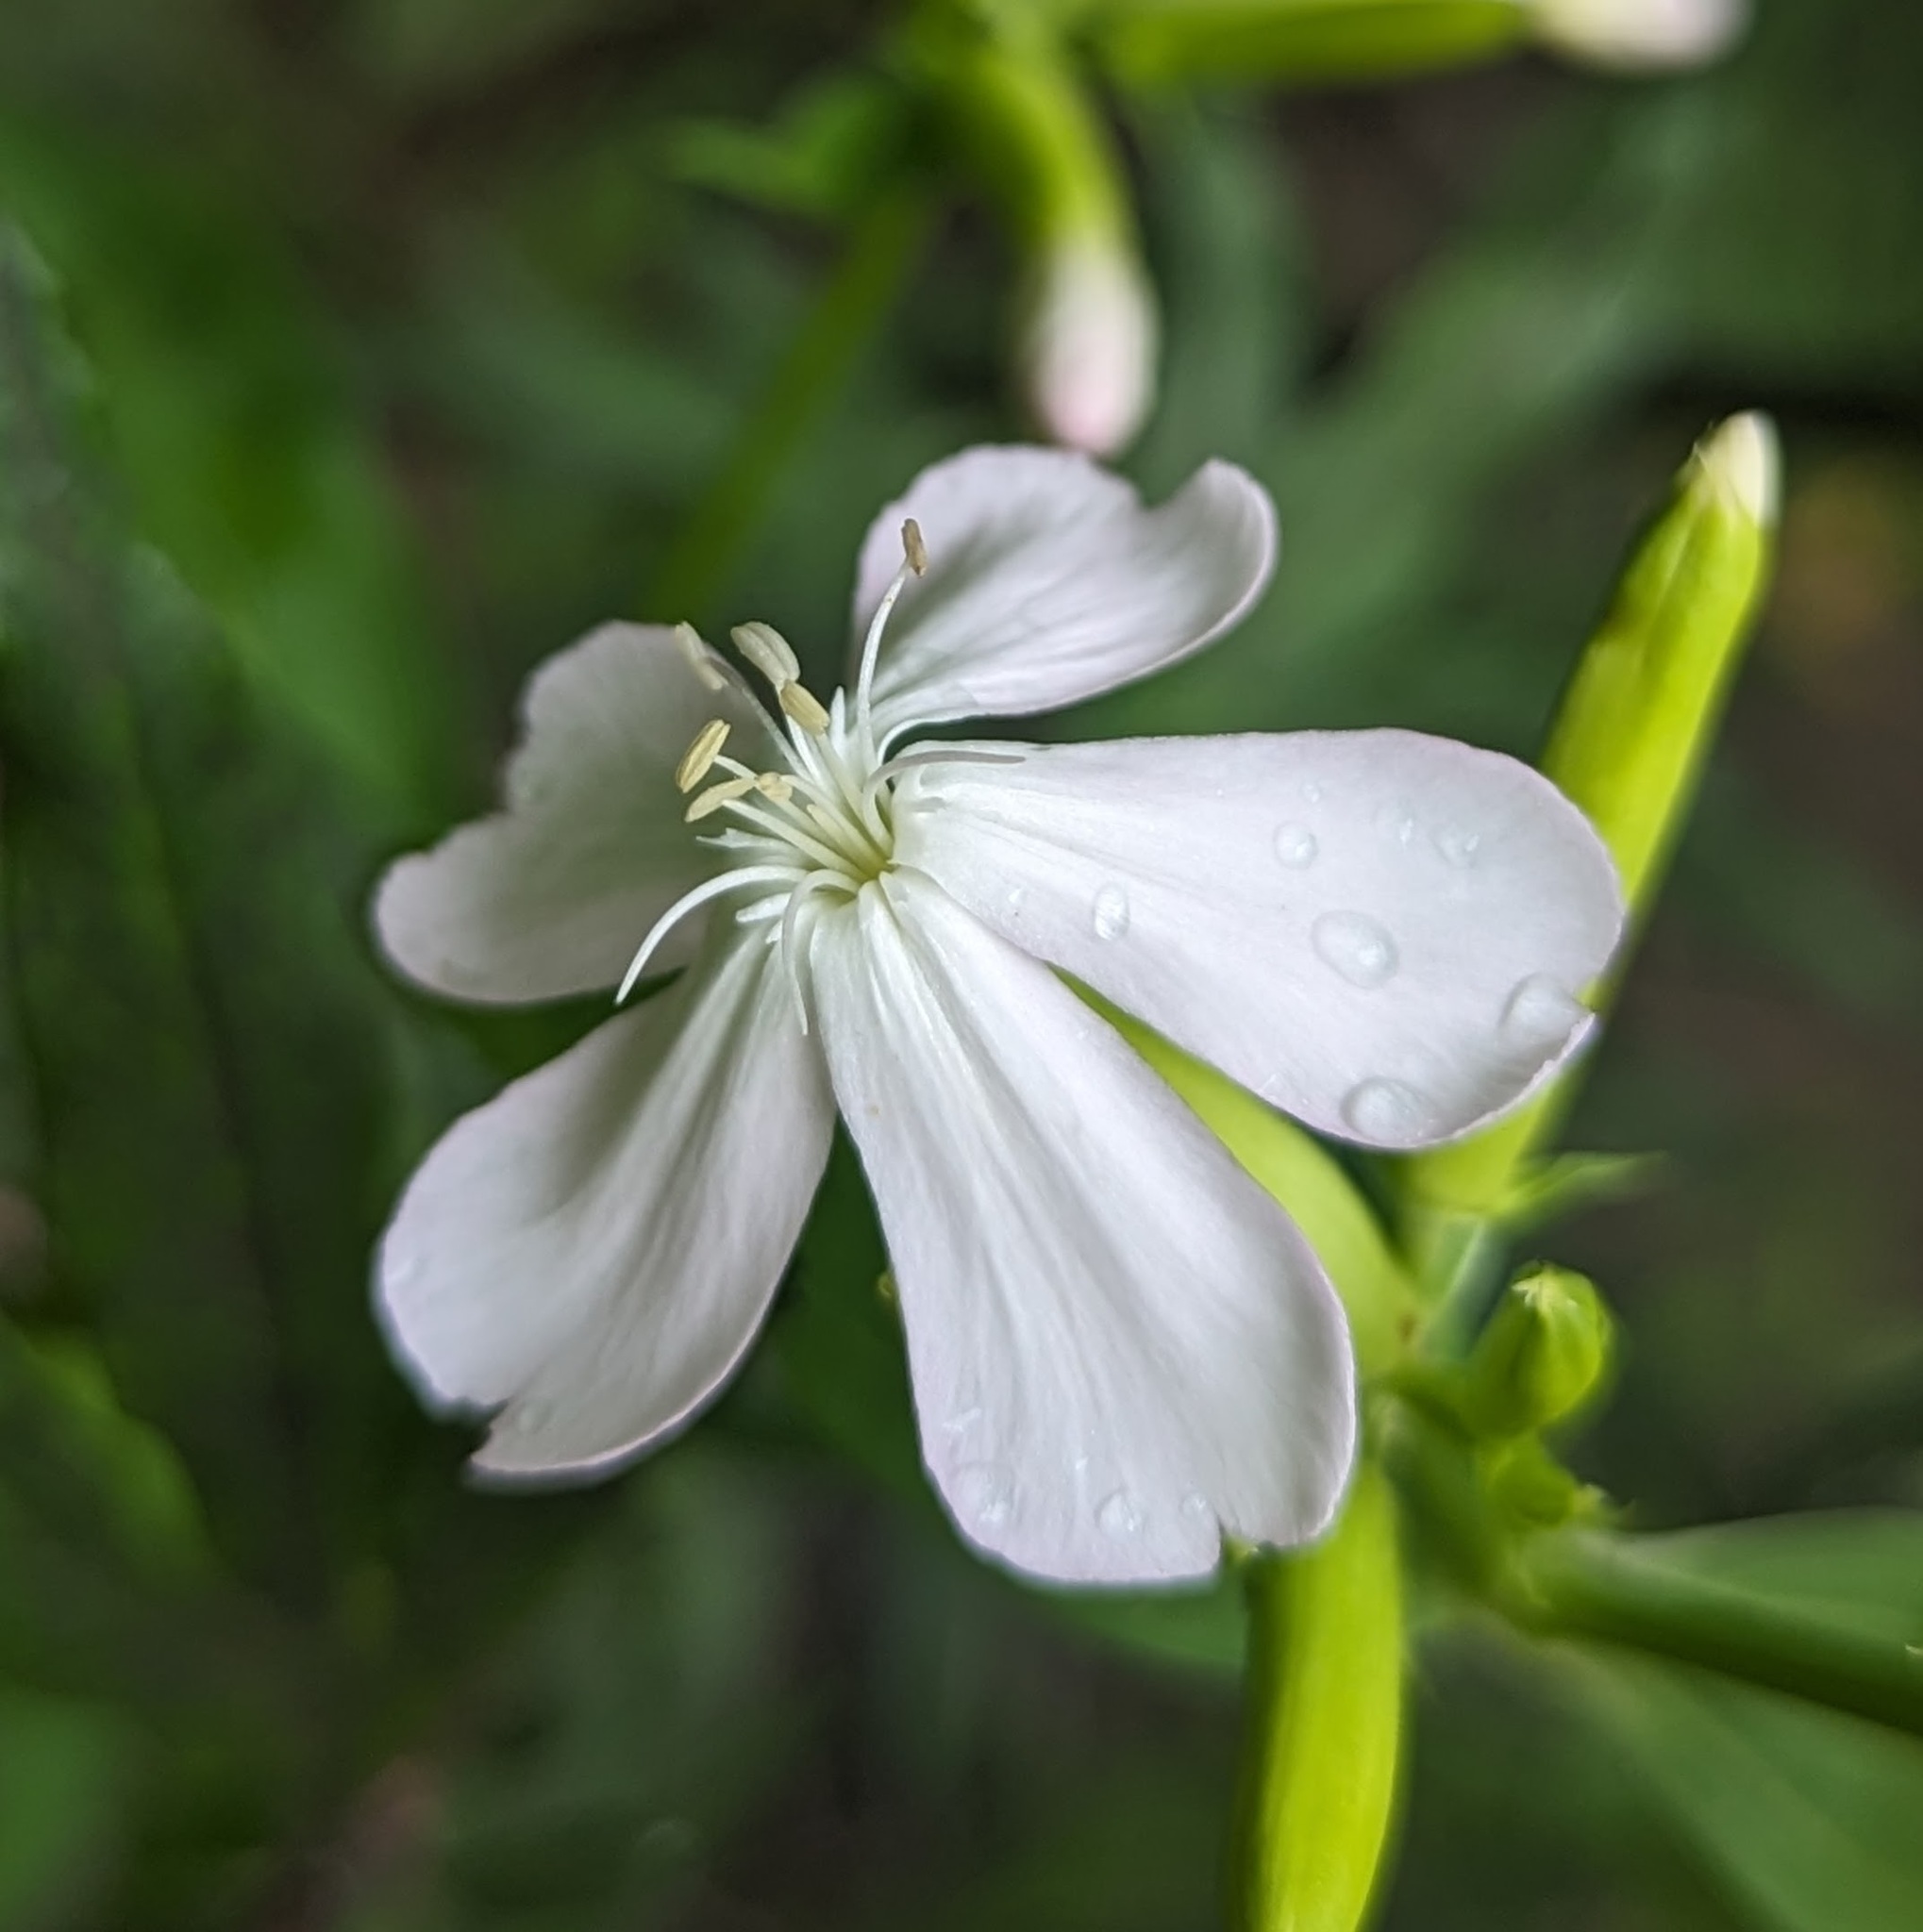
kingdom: Plantae
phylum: Tracheophyta
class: Magnoliopsida
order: Caryophyllales
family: Caryophyllaceae
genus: Saponaria
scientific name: Saponaria officinalis
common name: Soapwort
